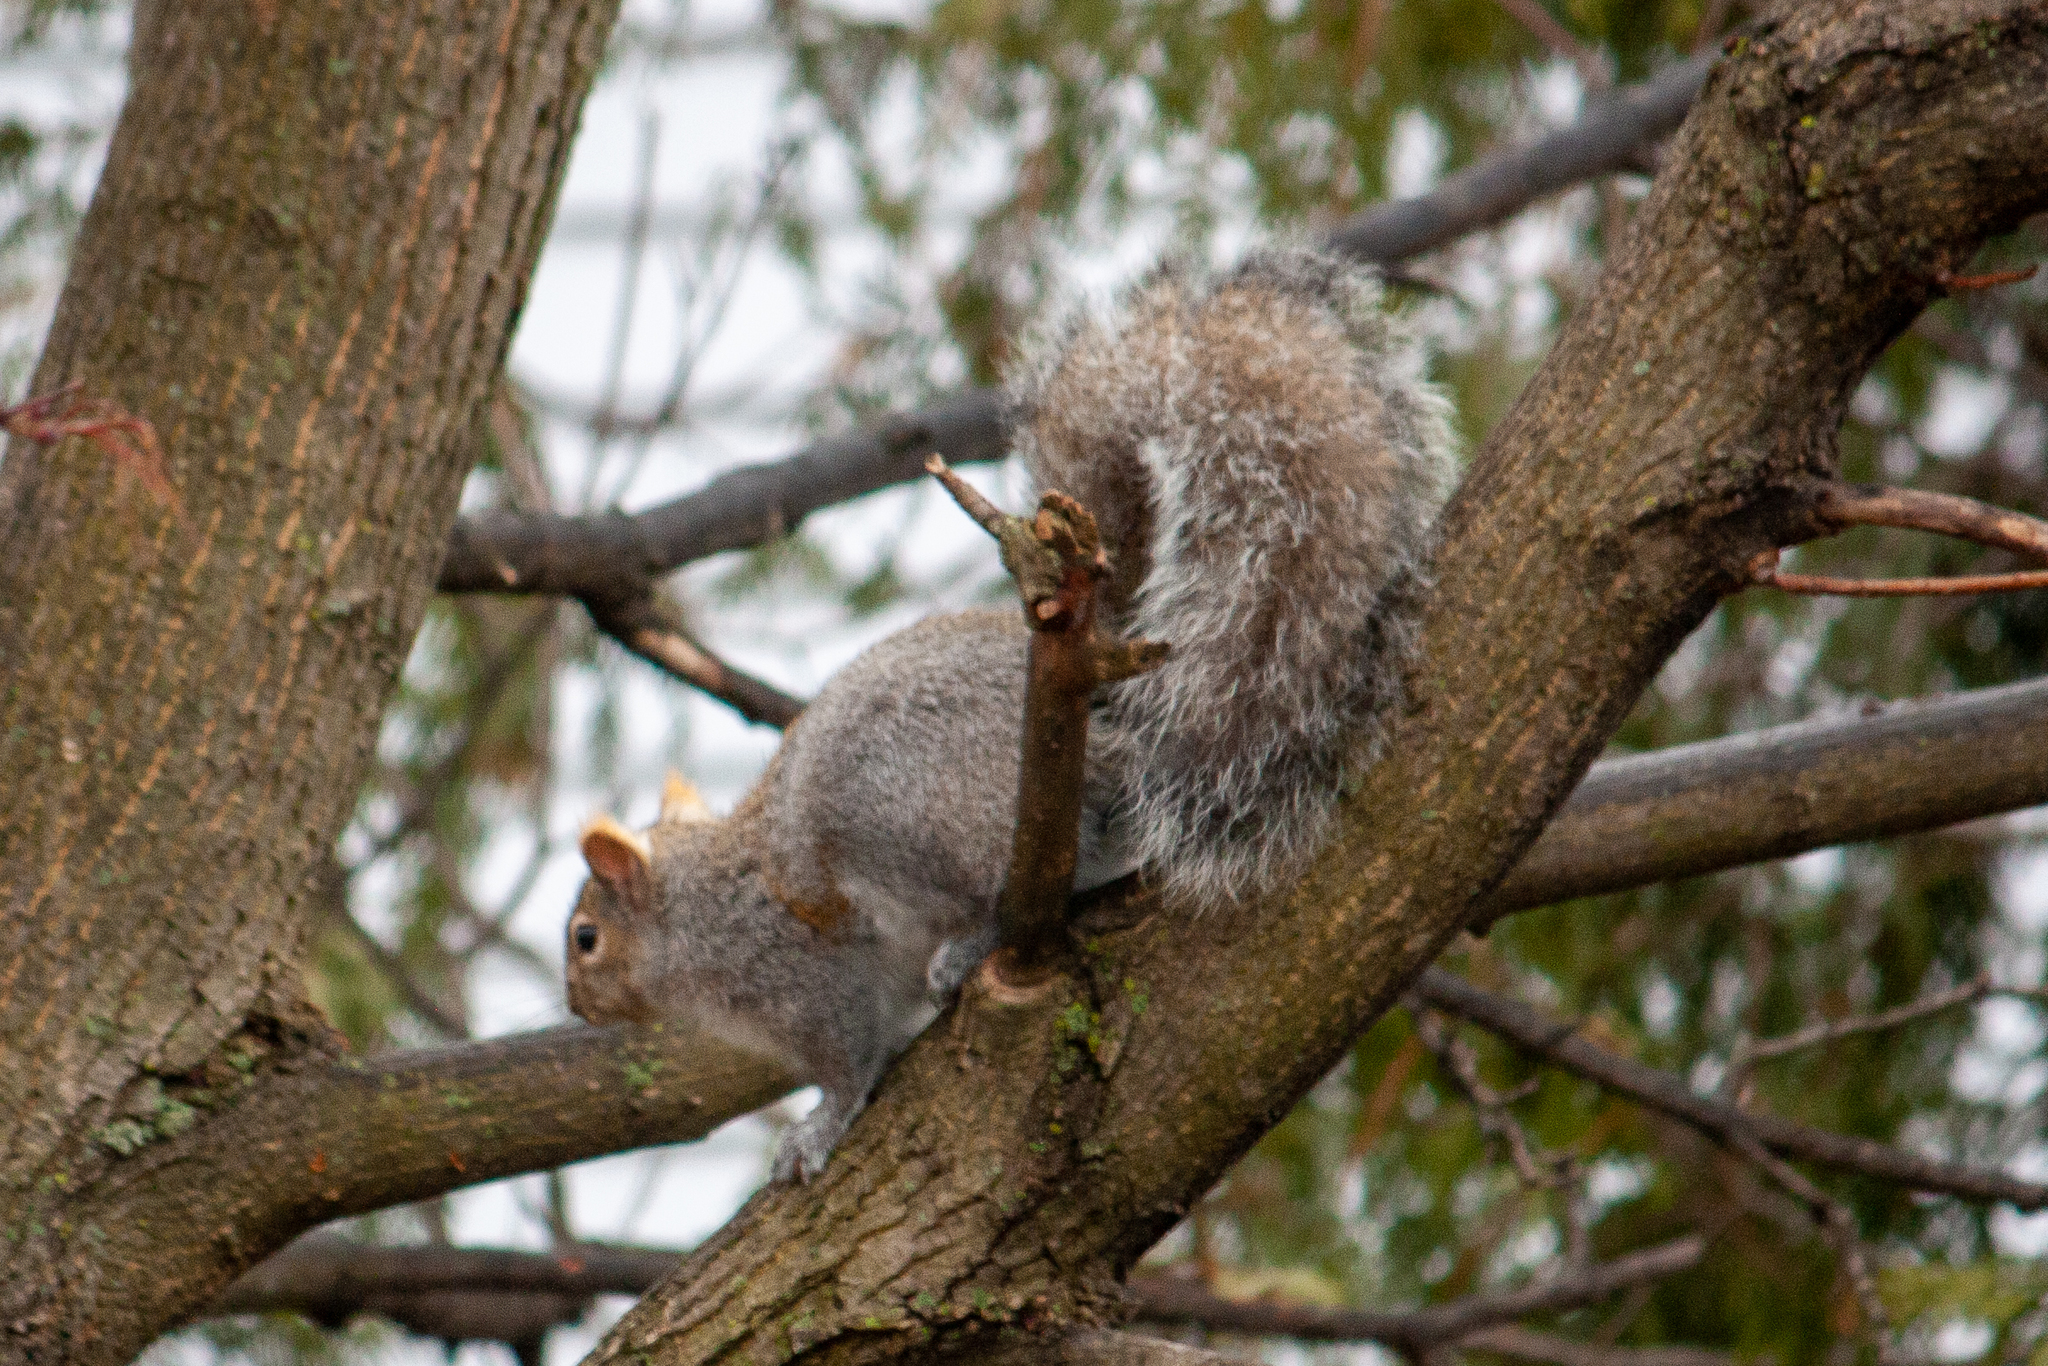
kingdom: Animalia
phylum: Chordata
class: Mammalia
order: Rodentia
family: Sciuridae
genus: Sciurus
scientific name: Sciurus carolinensis
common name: Eastern gray squirrel
